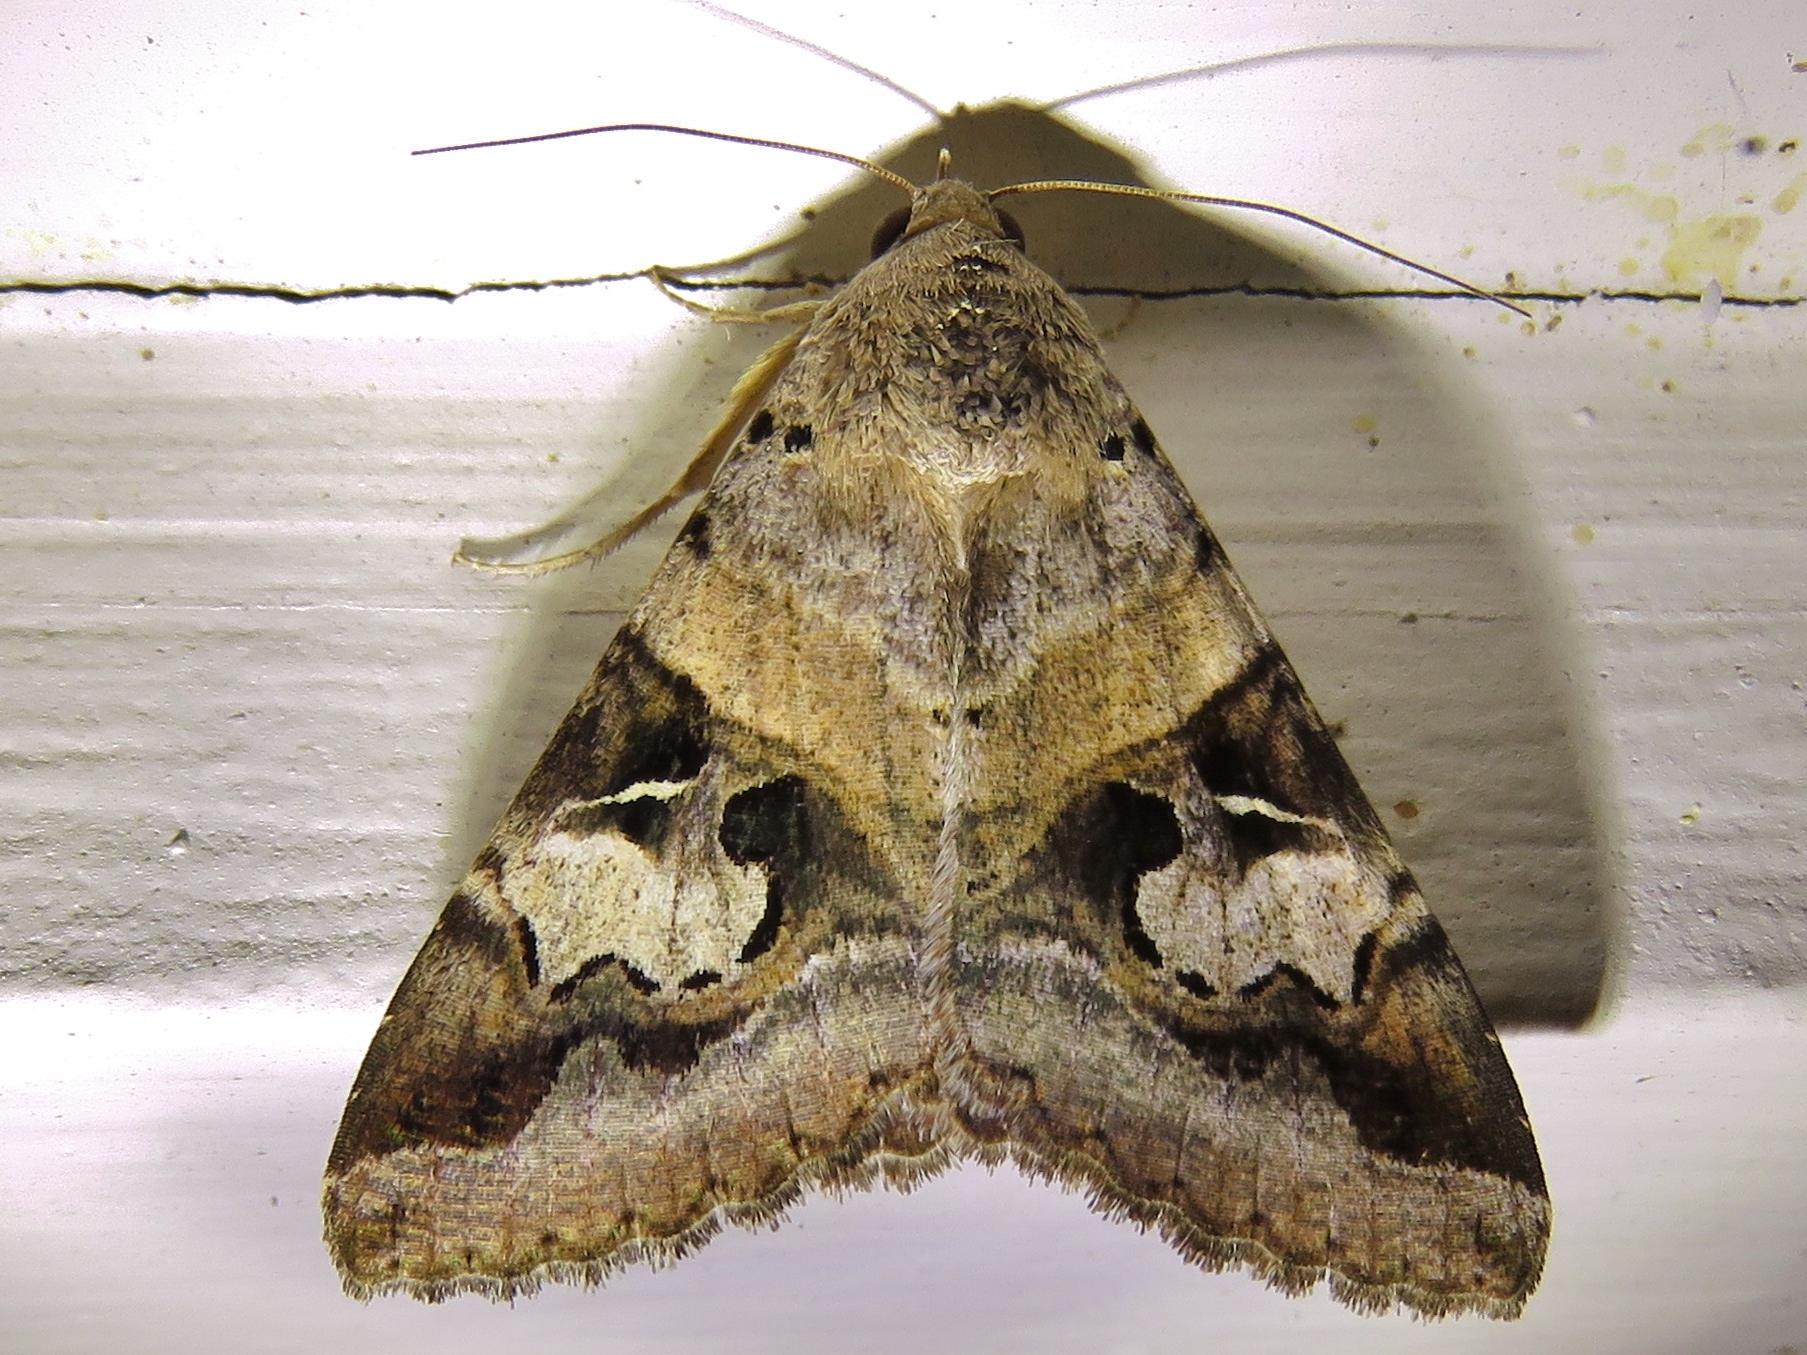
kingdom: Animalia
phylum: Arthropoda
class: Insecta
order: Lepidoptera
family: Erebidae
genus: Melipotis
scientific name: Melipotis indomita
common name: Moth
